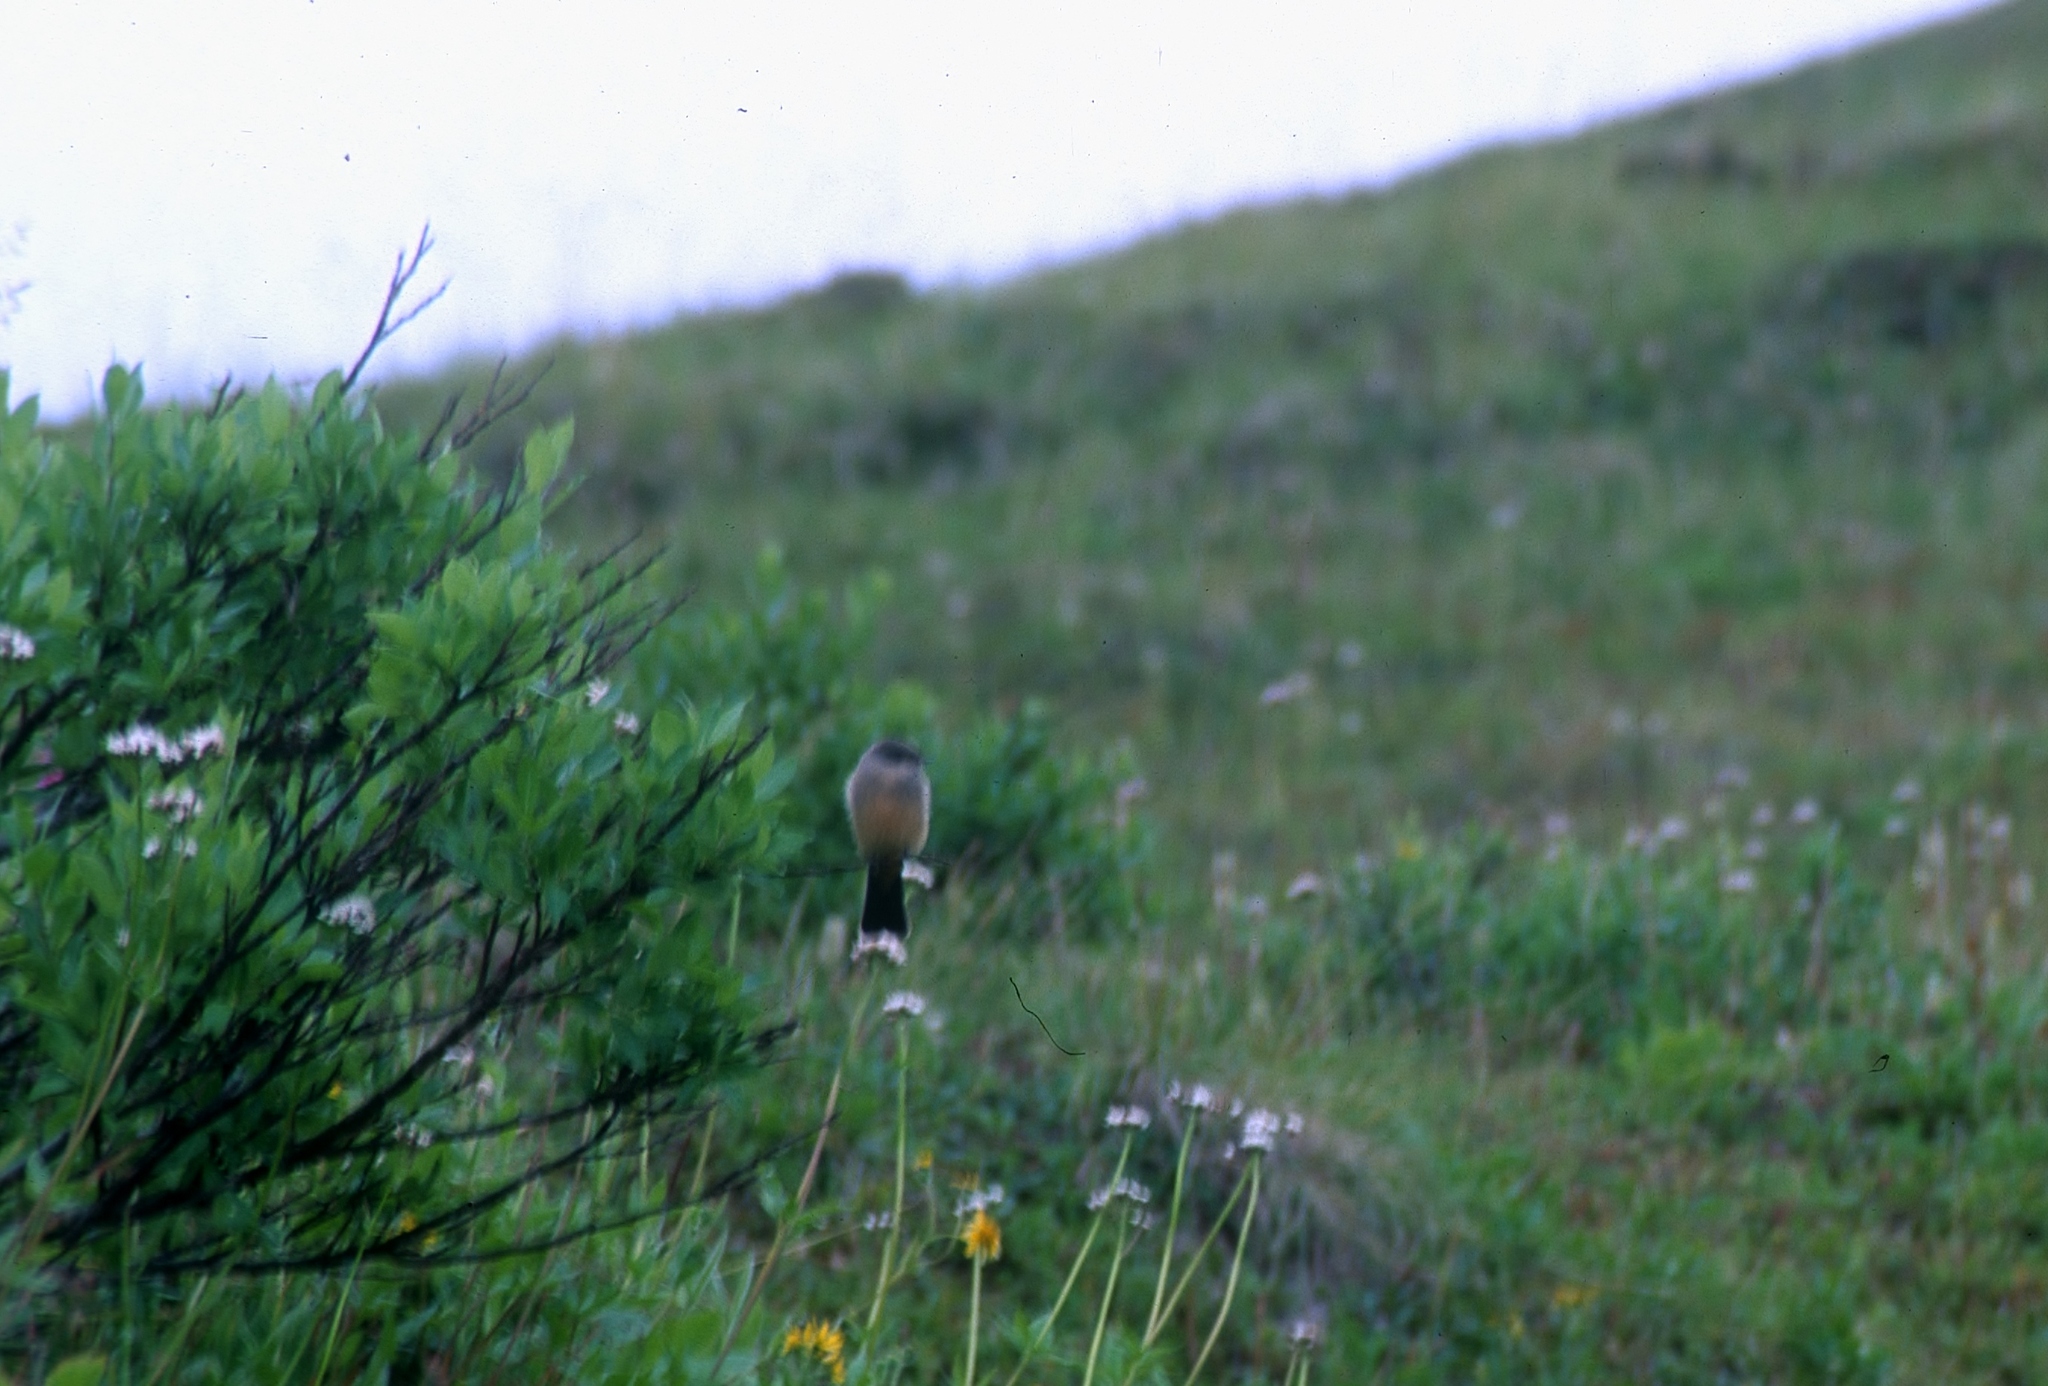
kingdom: Animalia
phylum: Chordata
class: Aves
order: Passeriformes
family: Tyrannidae
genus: Sayornis
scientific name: Sayornis saya
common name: Say's phoebe
